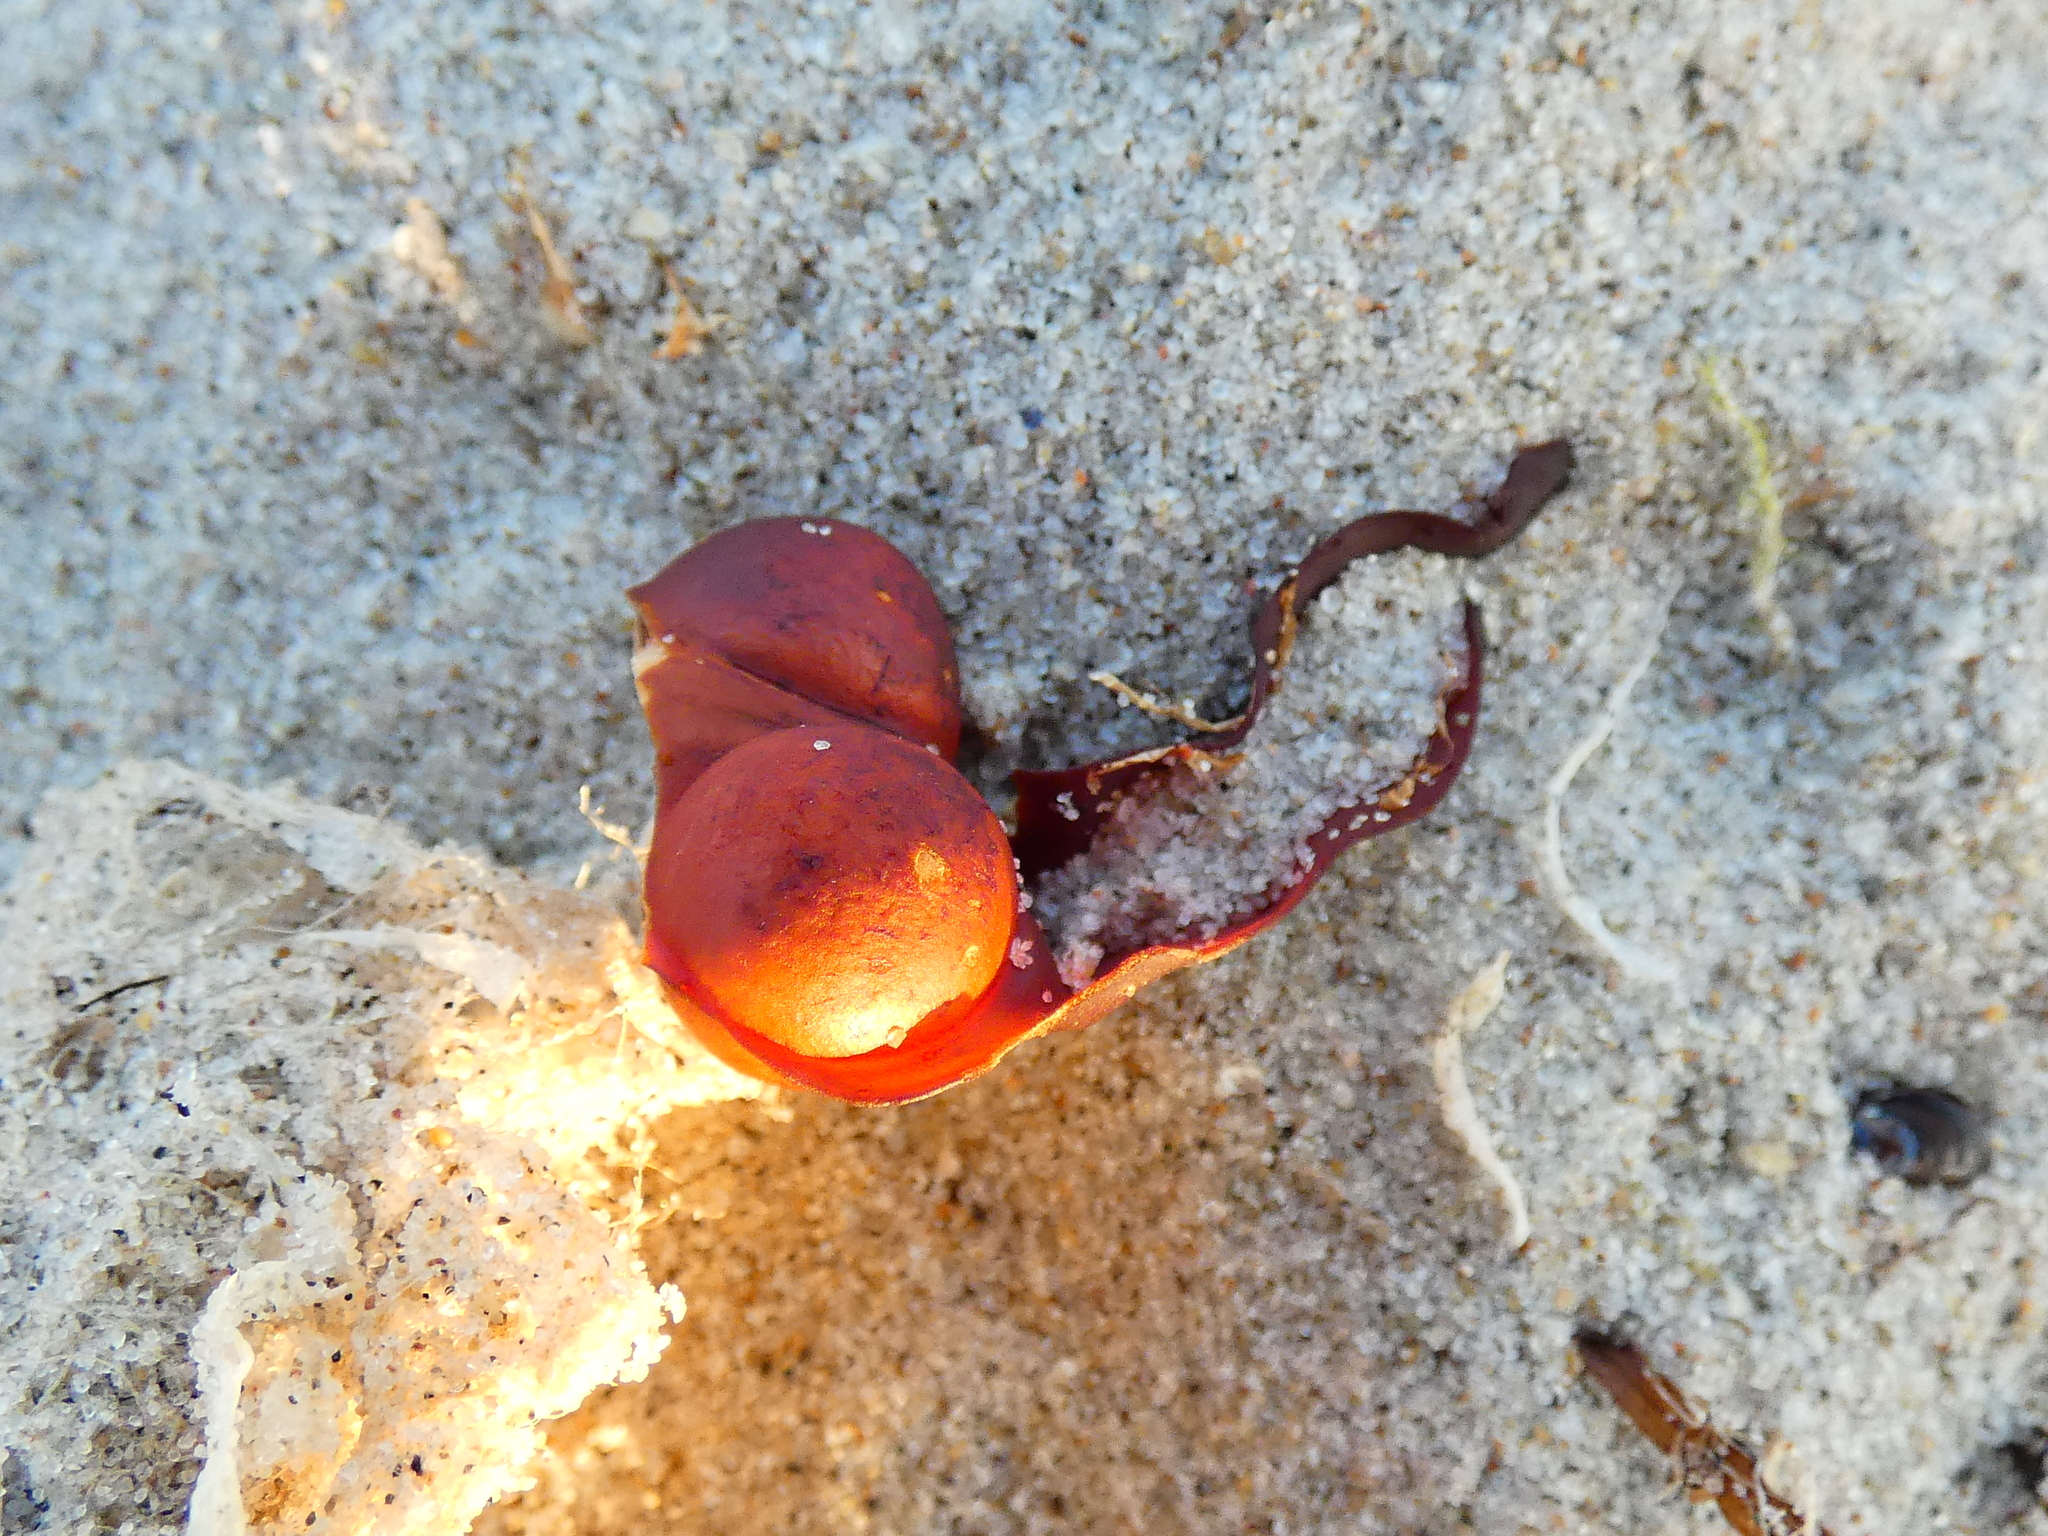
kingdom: Chromista
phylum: Ochrophyta
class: Phaeophyceae
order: Fucales
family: Fucaceae
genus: Fucus
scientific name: Fucus vesiculosus
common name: Bladder wrack
